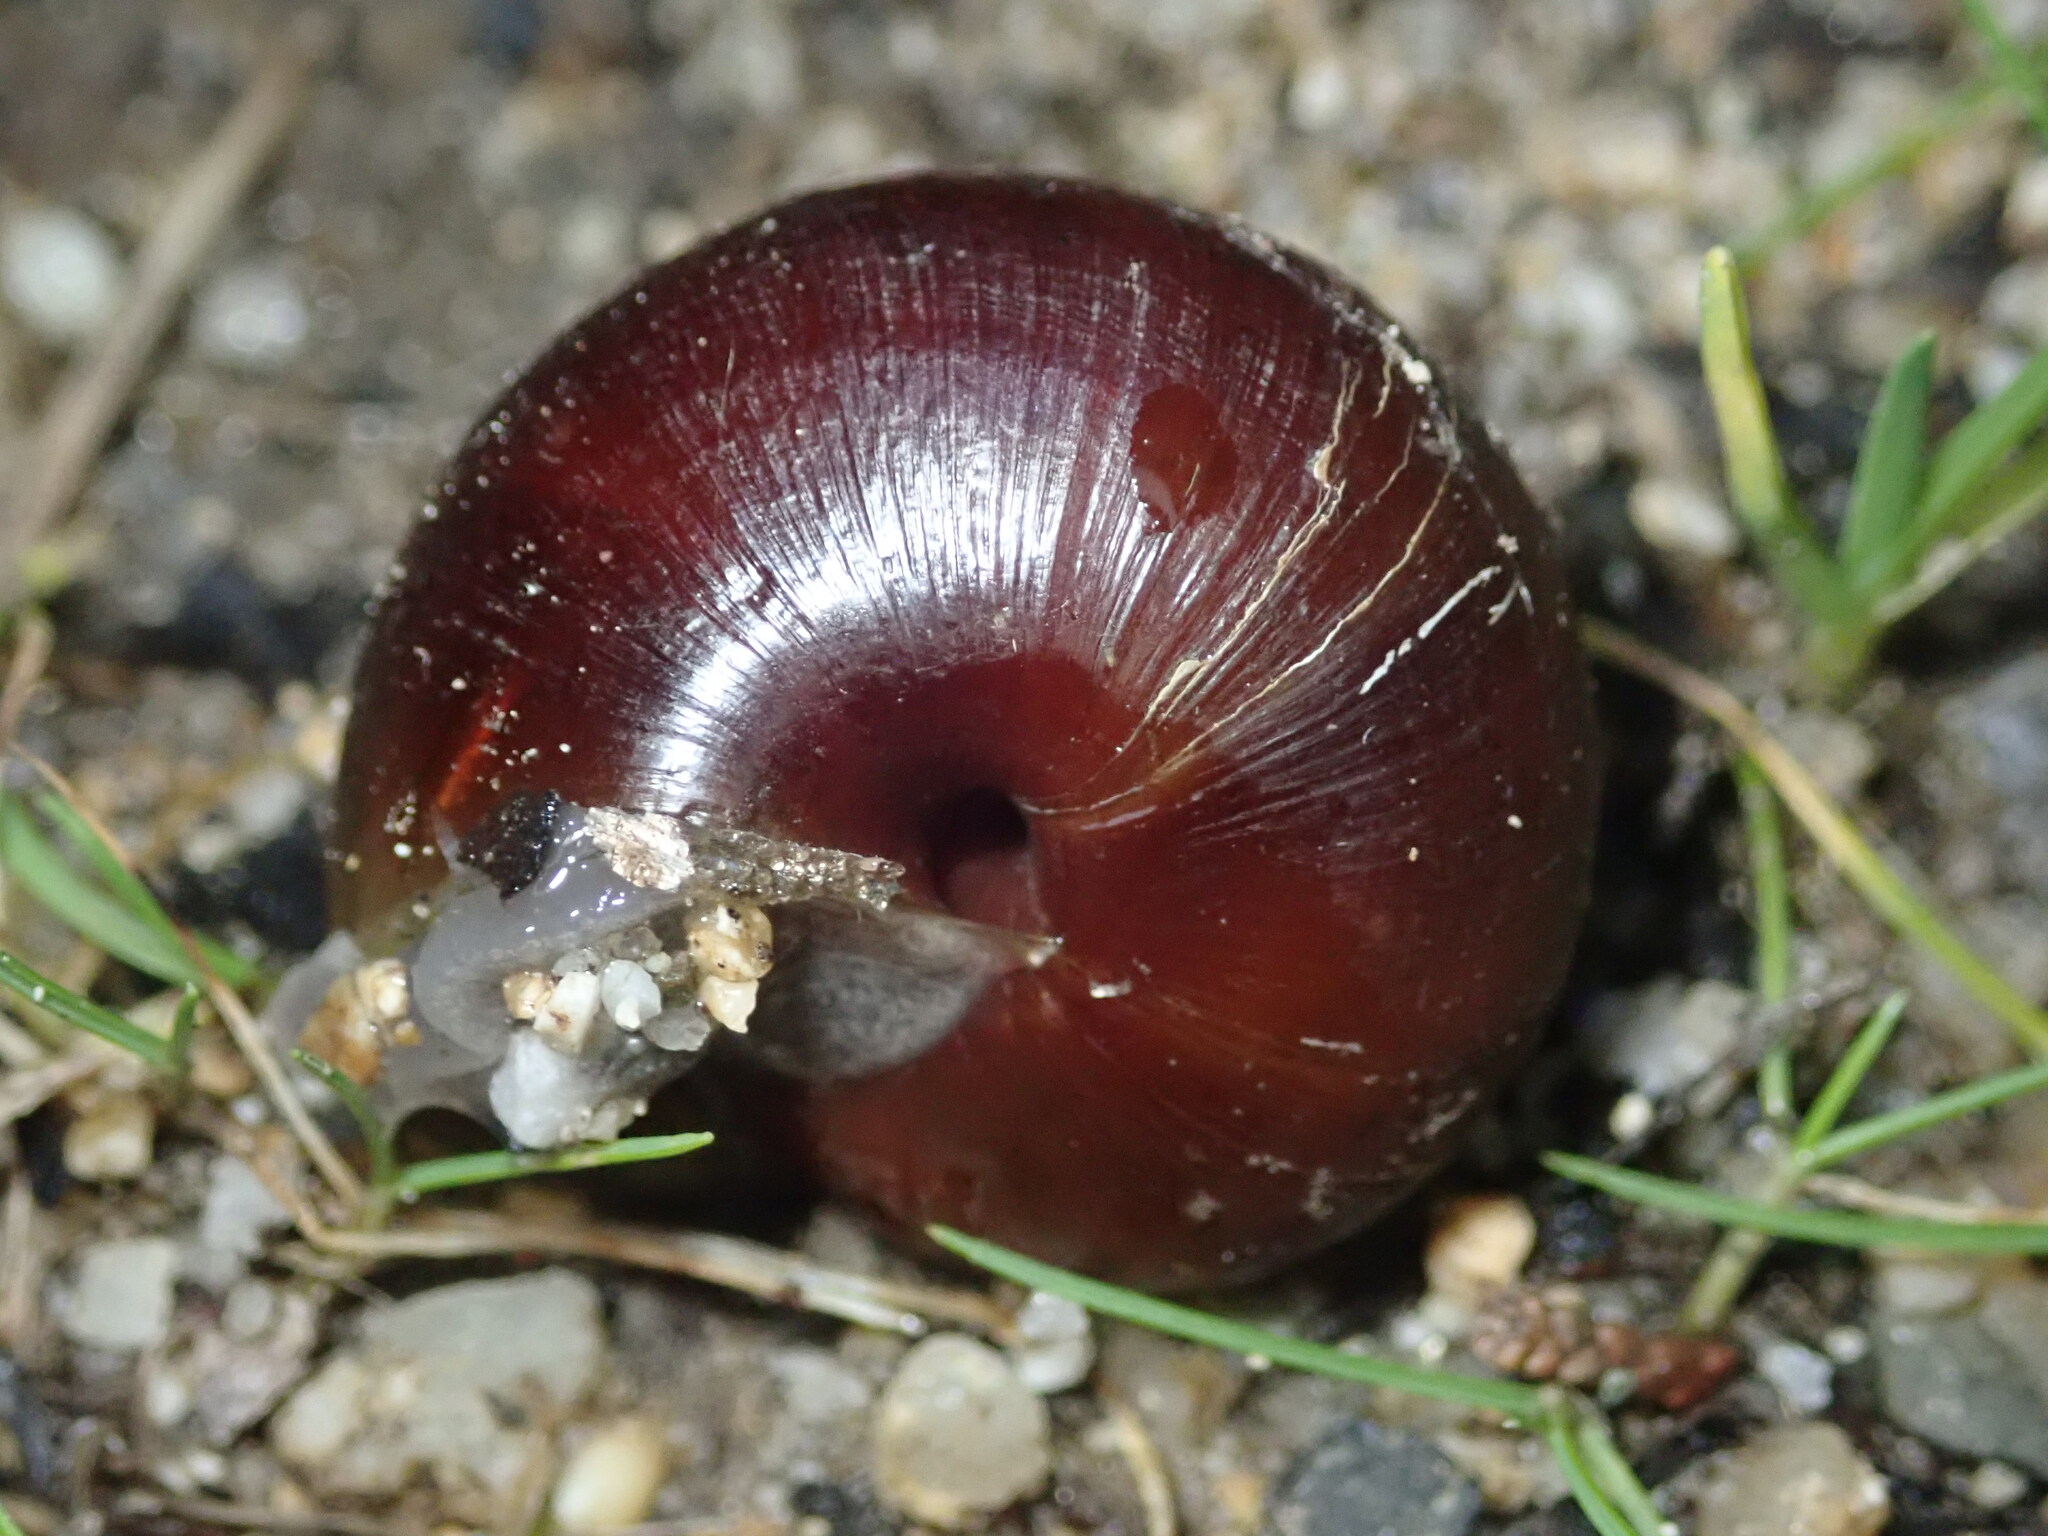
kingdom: Animalia
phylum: Mollusca
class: Gastropoda
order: Stylommatophora
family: Xanthonychidae
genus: Helminthoglypta
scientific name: Helminthoglypta arrosa
